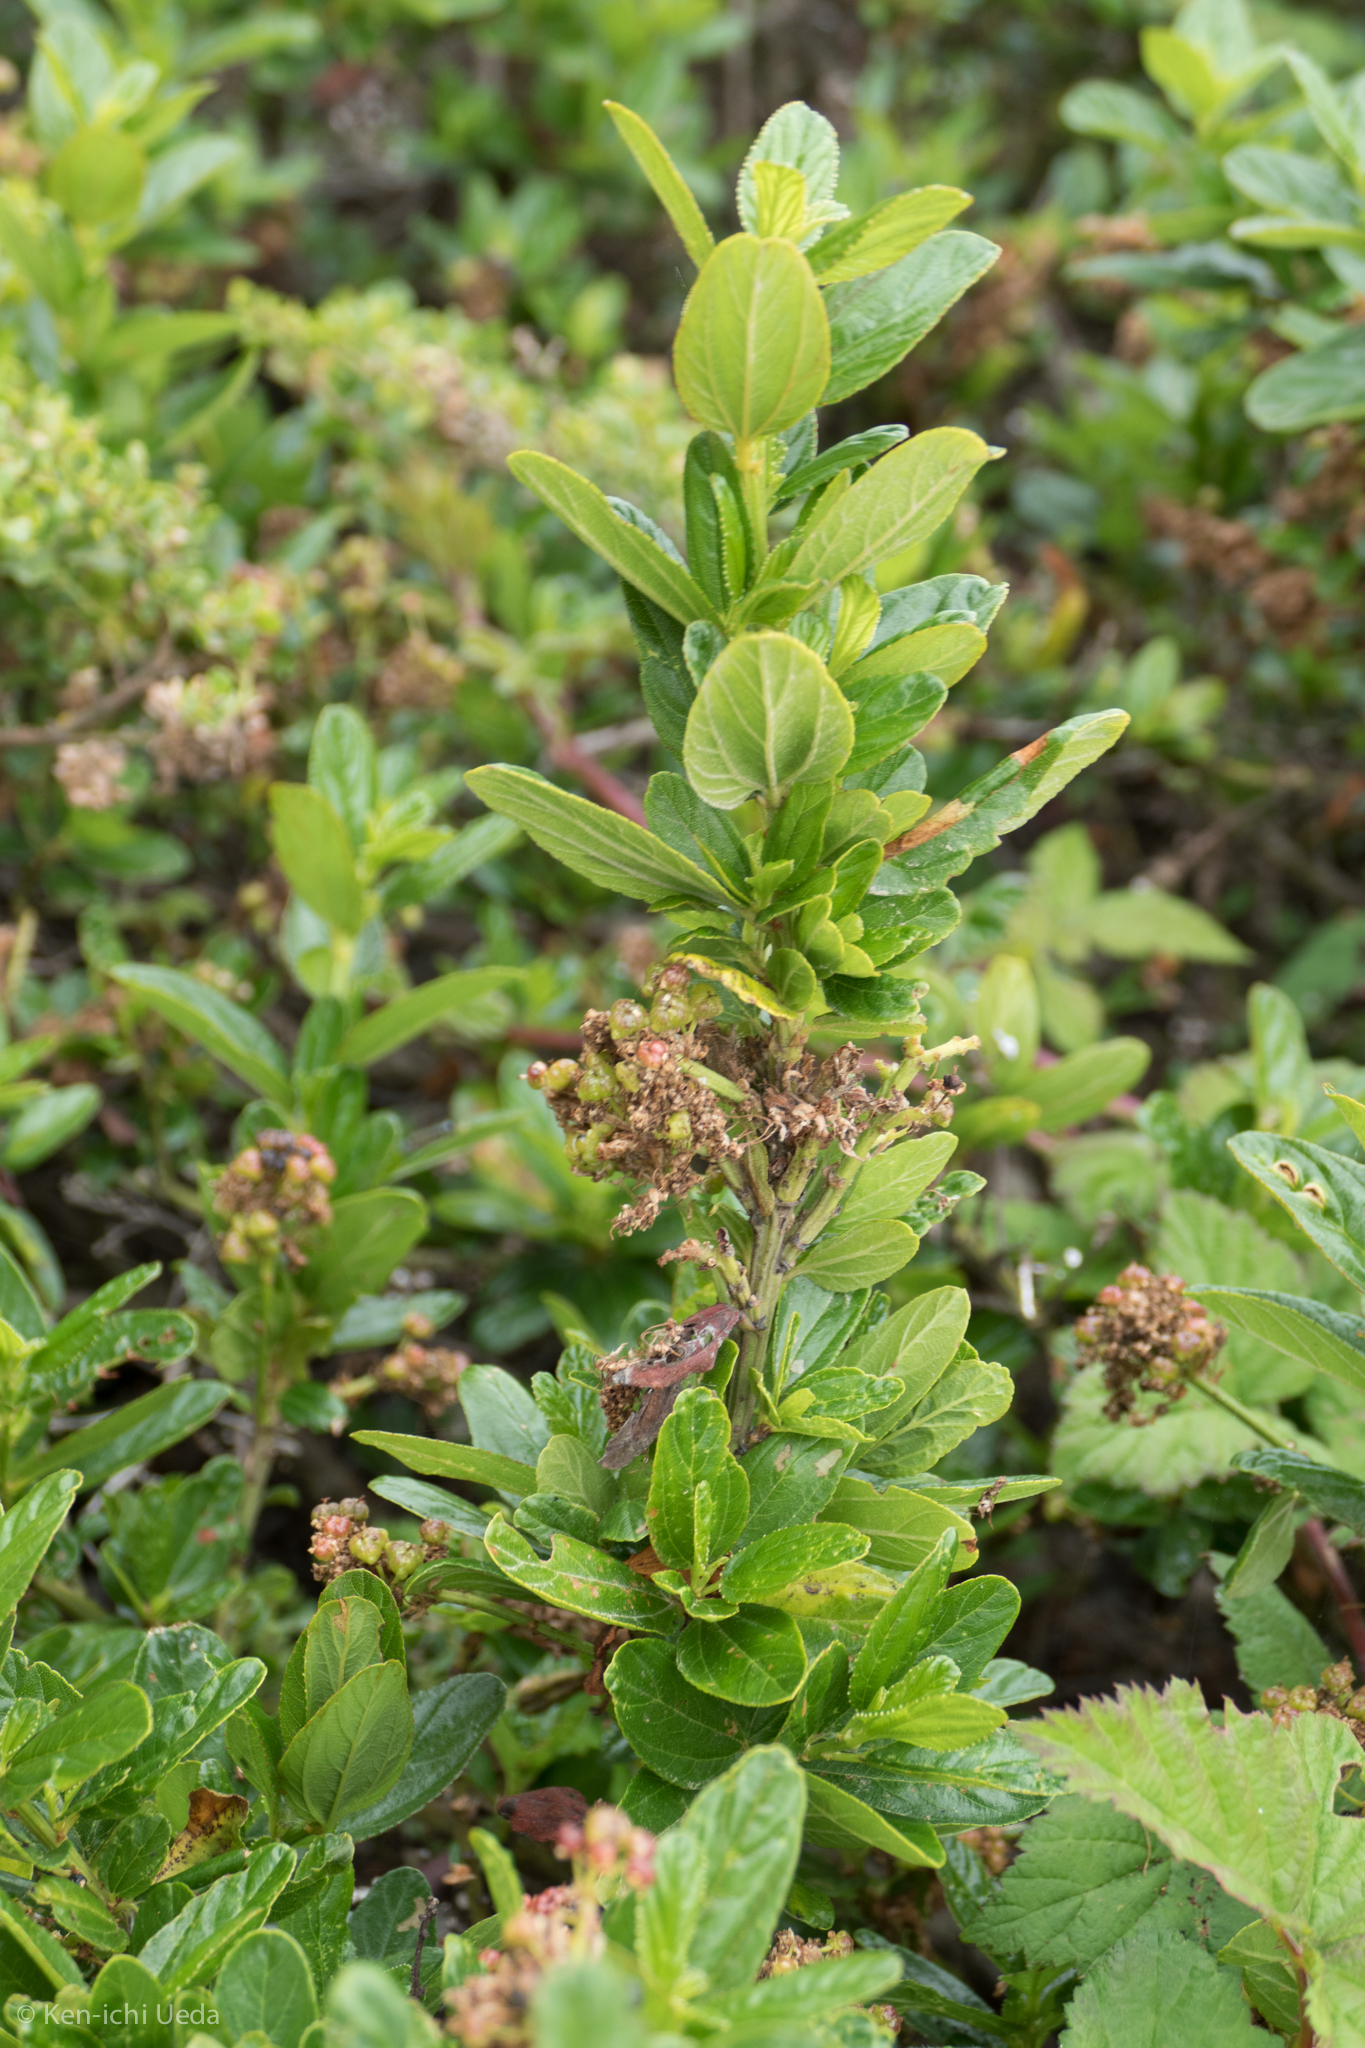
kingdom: Plantae
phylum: Tracheophyta
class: Magnoliopsida
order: Rosales
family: Rhamnaceae
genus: Ceanothus
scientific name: Ceanothus thyrsiflorus
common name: California-lilac
